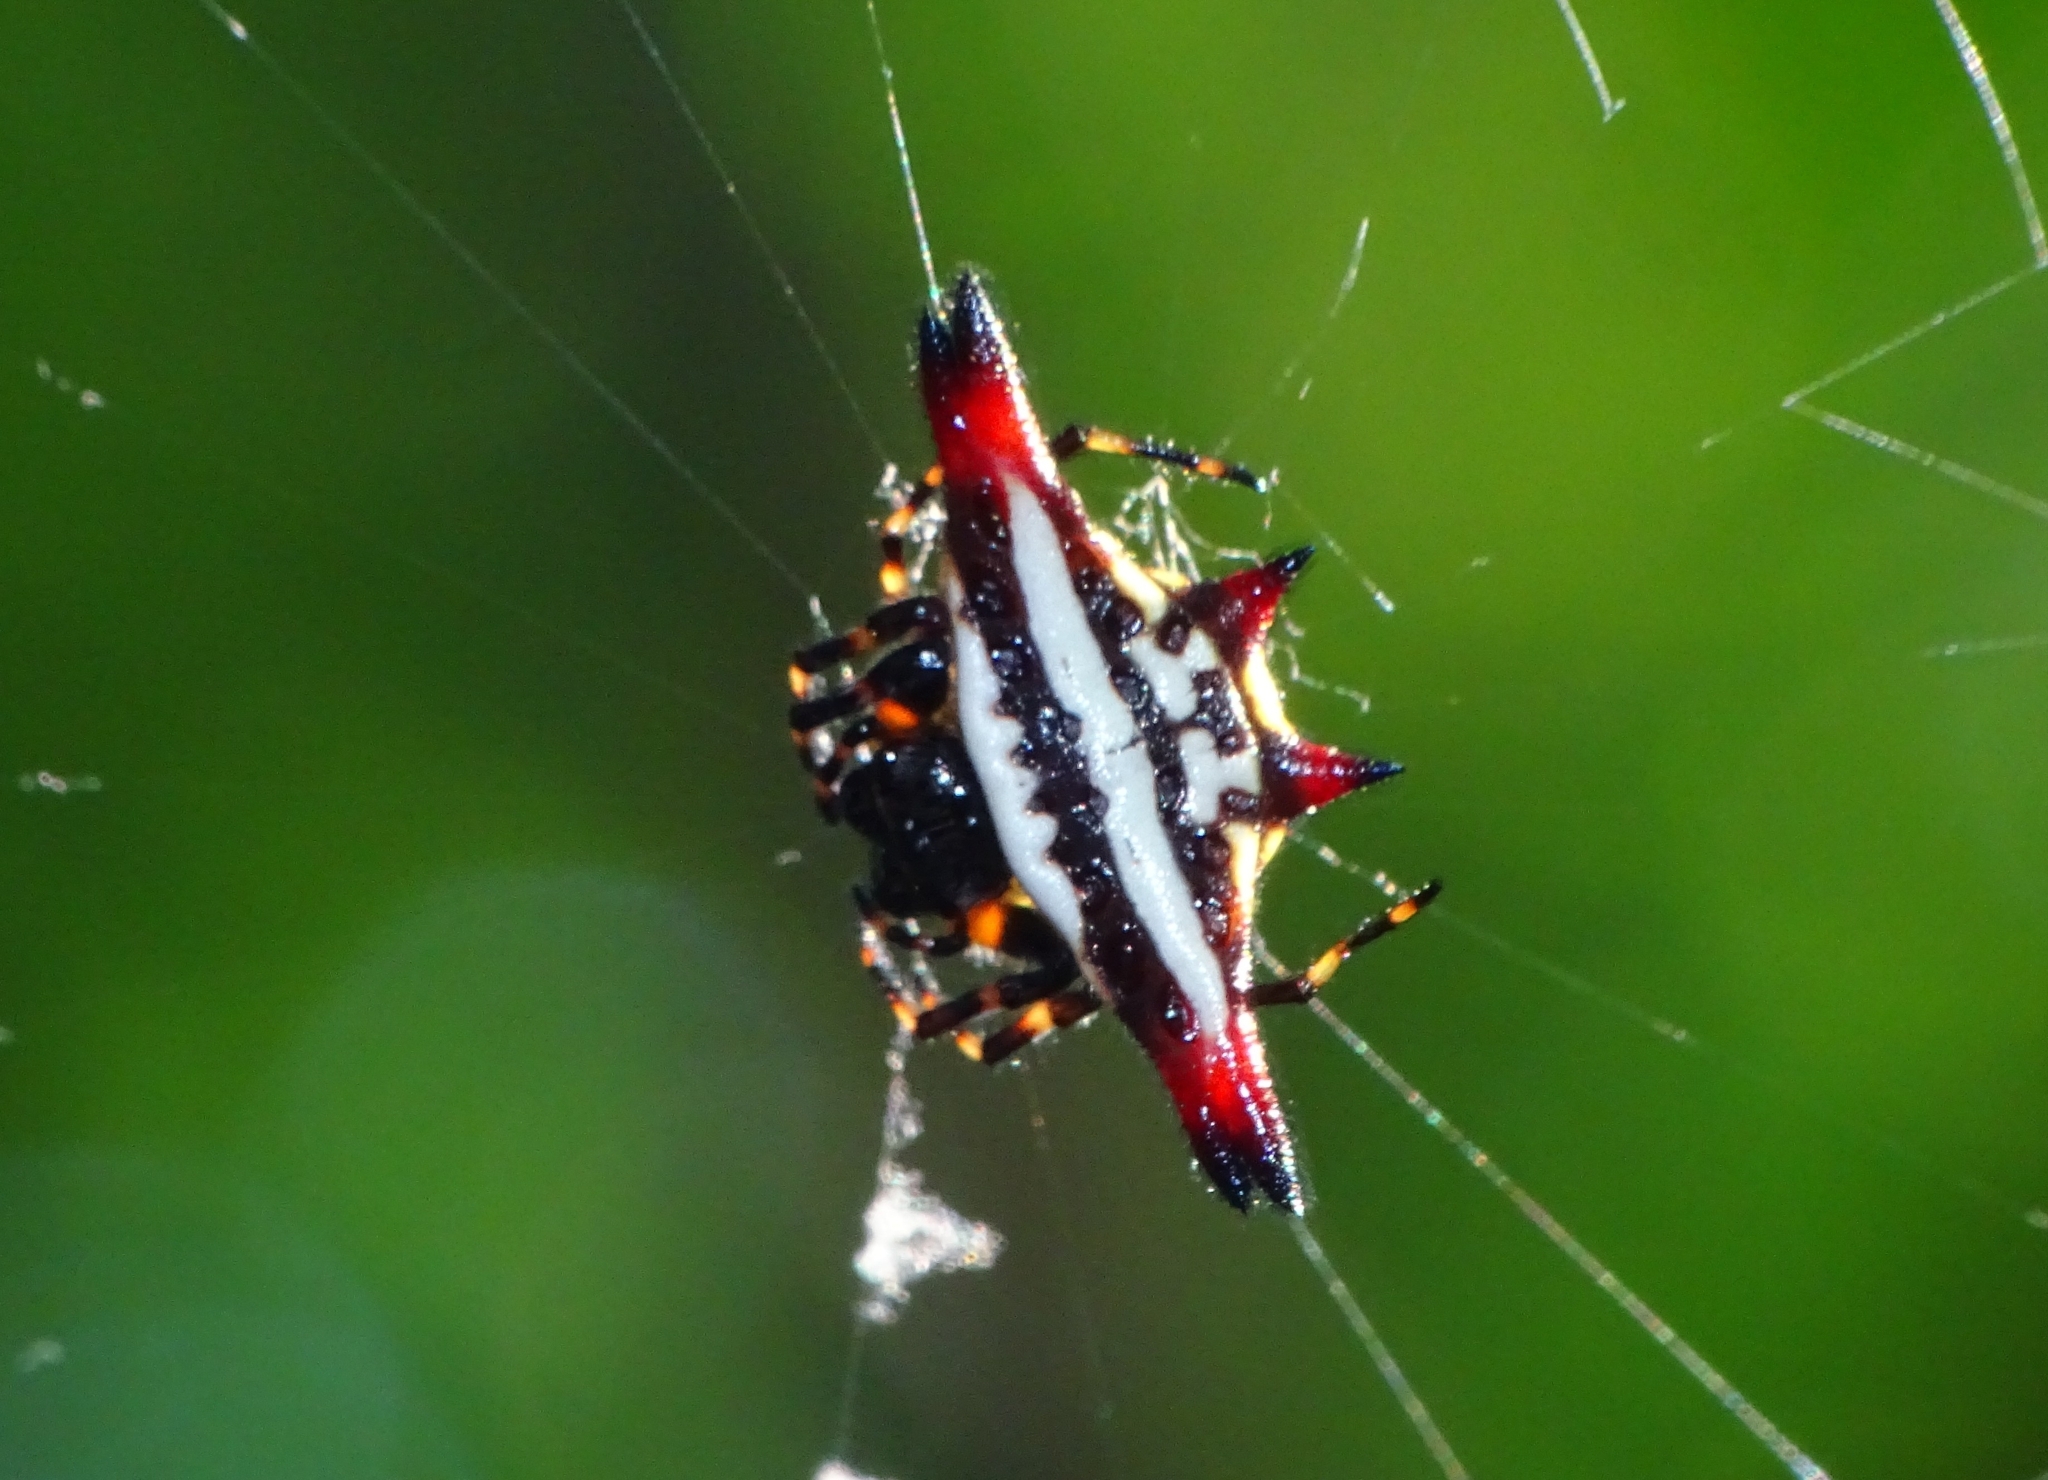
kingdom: Animalia
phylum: Arthropoda
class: Arachnida
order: Araneae
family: Araneidae
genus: Gasteracantha
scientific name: Gasteracantha geminata
